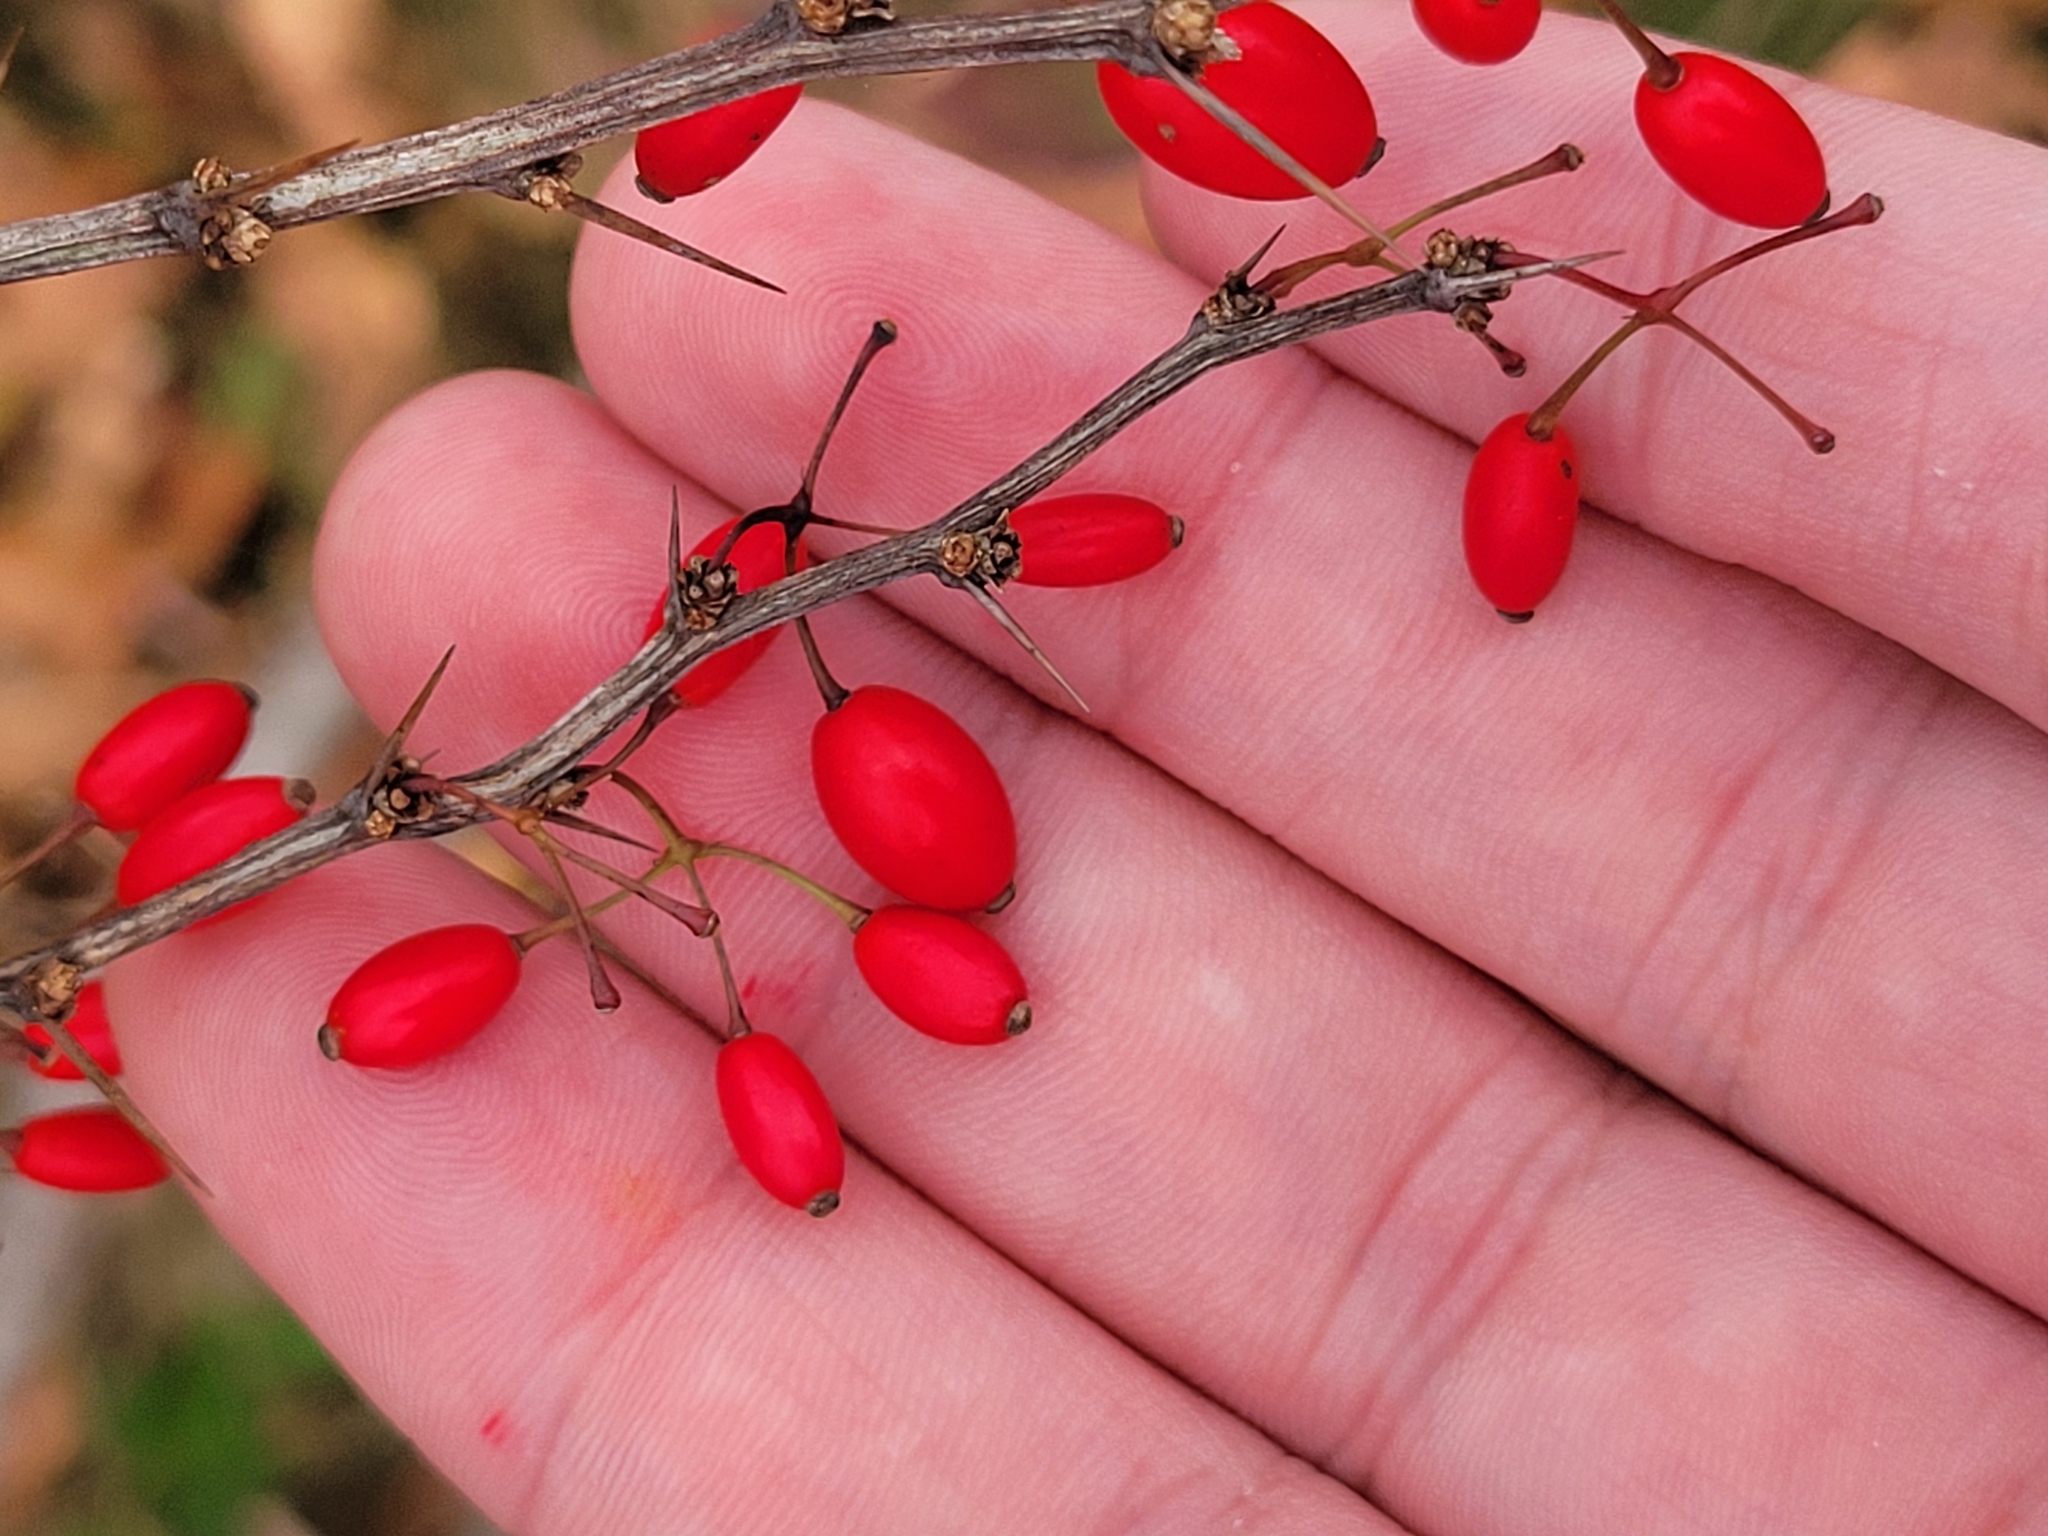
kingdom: Plantae
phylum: Tracheophyta
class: Magnoliopsida
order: Ranunculales
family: Berberidaceae
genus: Berberis
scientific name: Berberis thunbergii
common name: Japanese barberry
